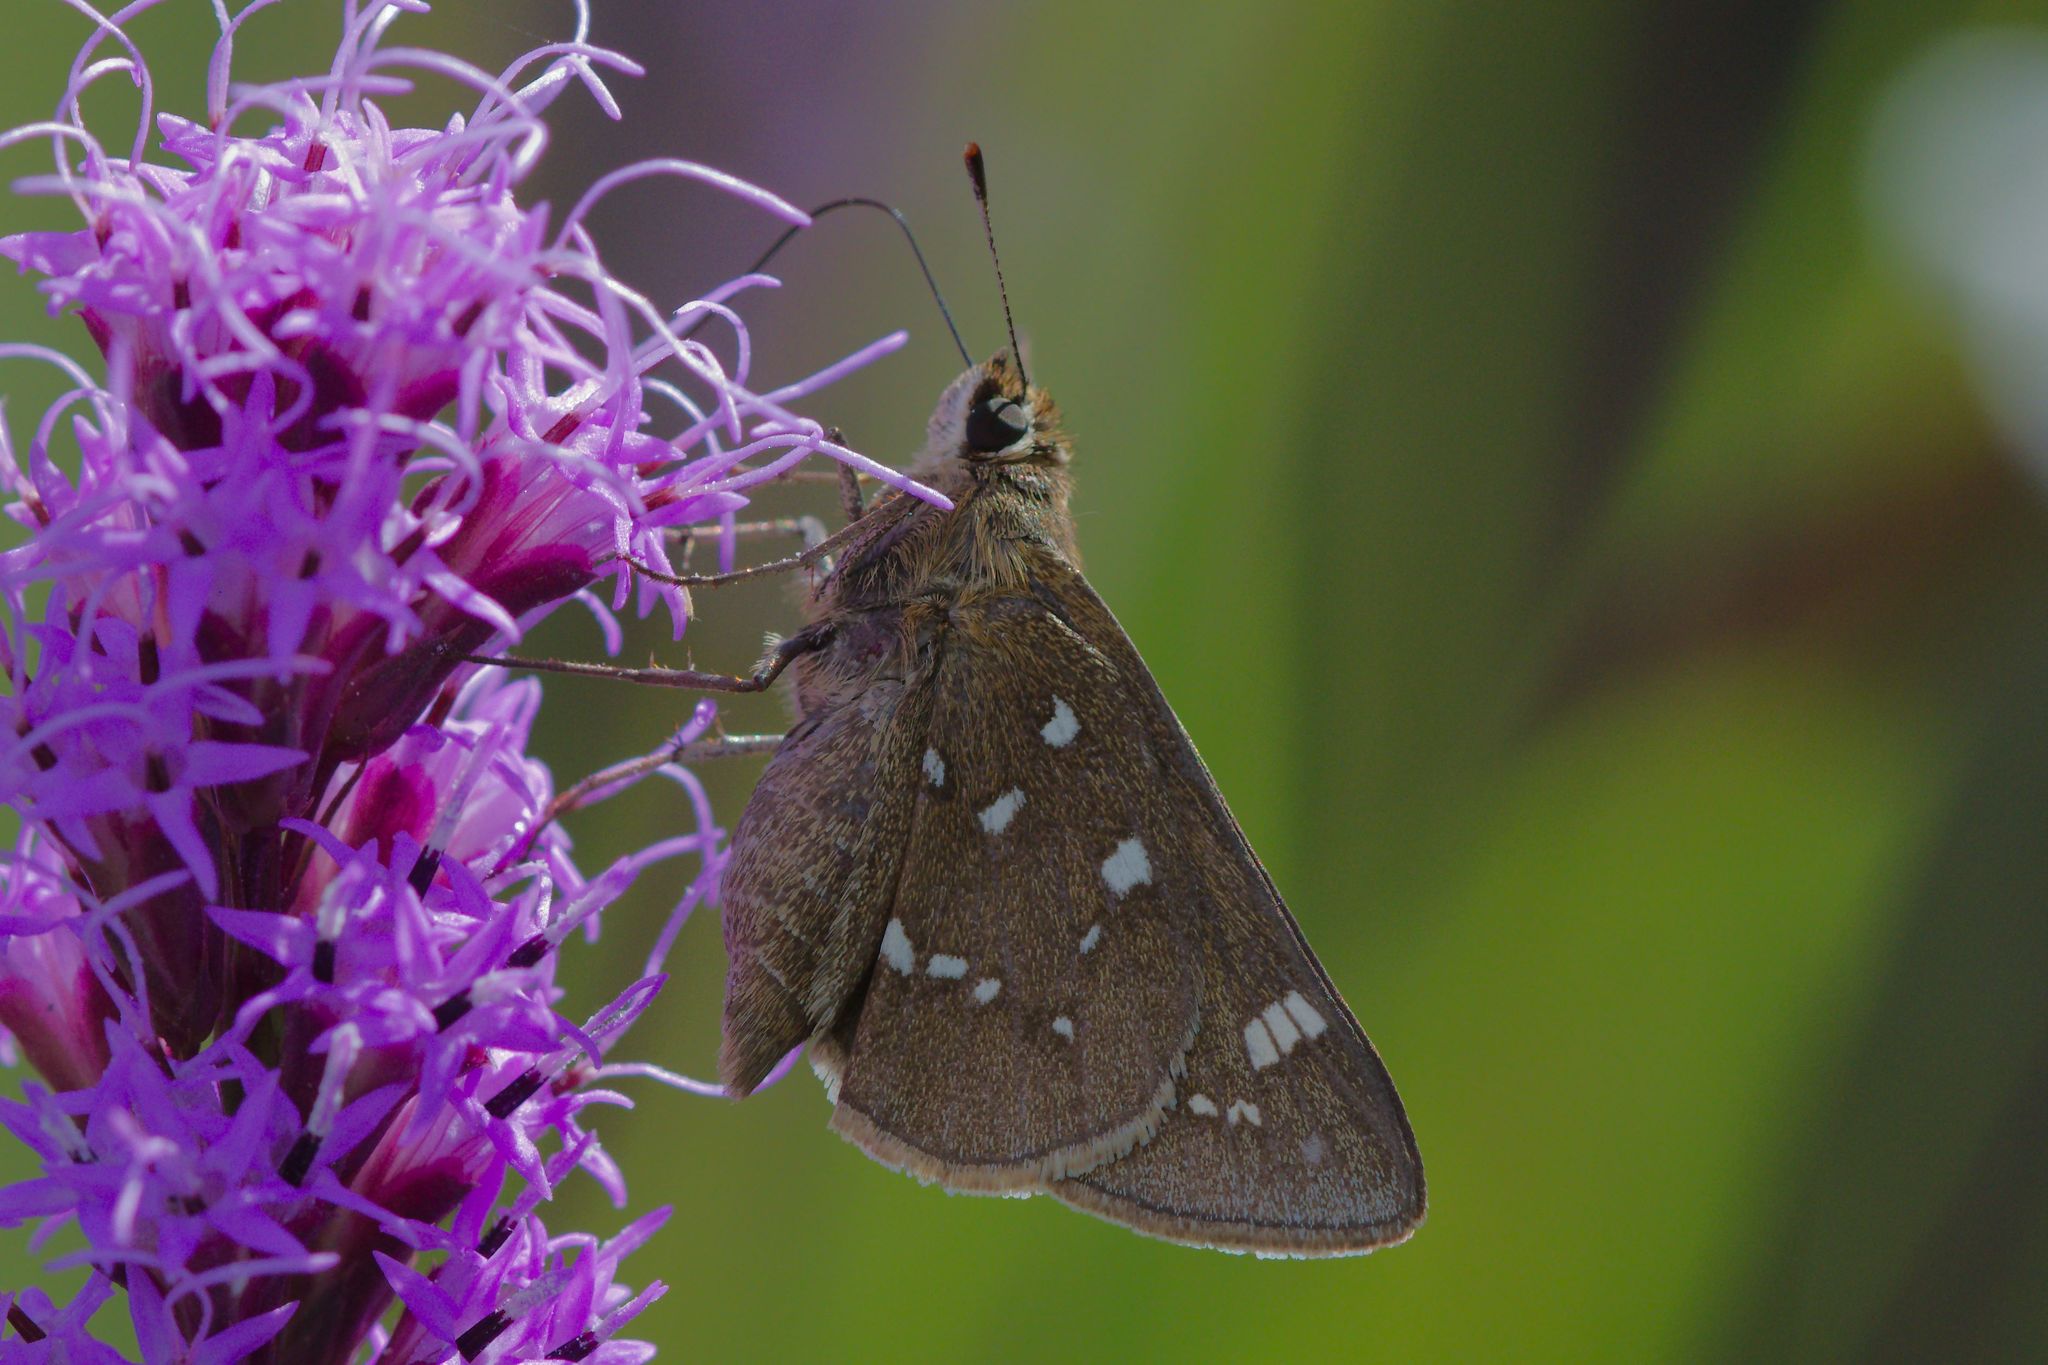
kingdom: Animalia
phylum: Arthropoda
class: Insecta
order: Lepidoptera
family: Hesperiidae
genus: Atrytonopsis
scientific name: Atrytonopsis loammi
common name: Loammi skipper
